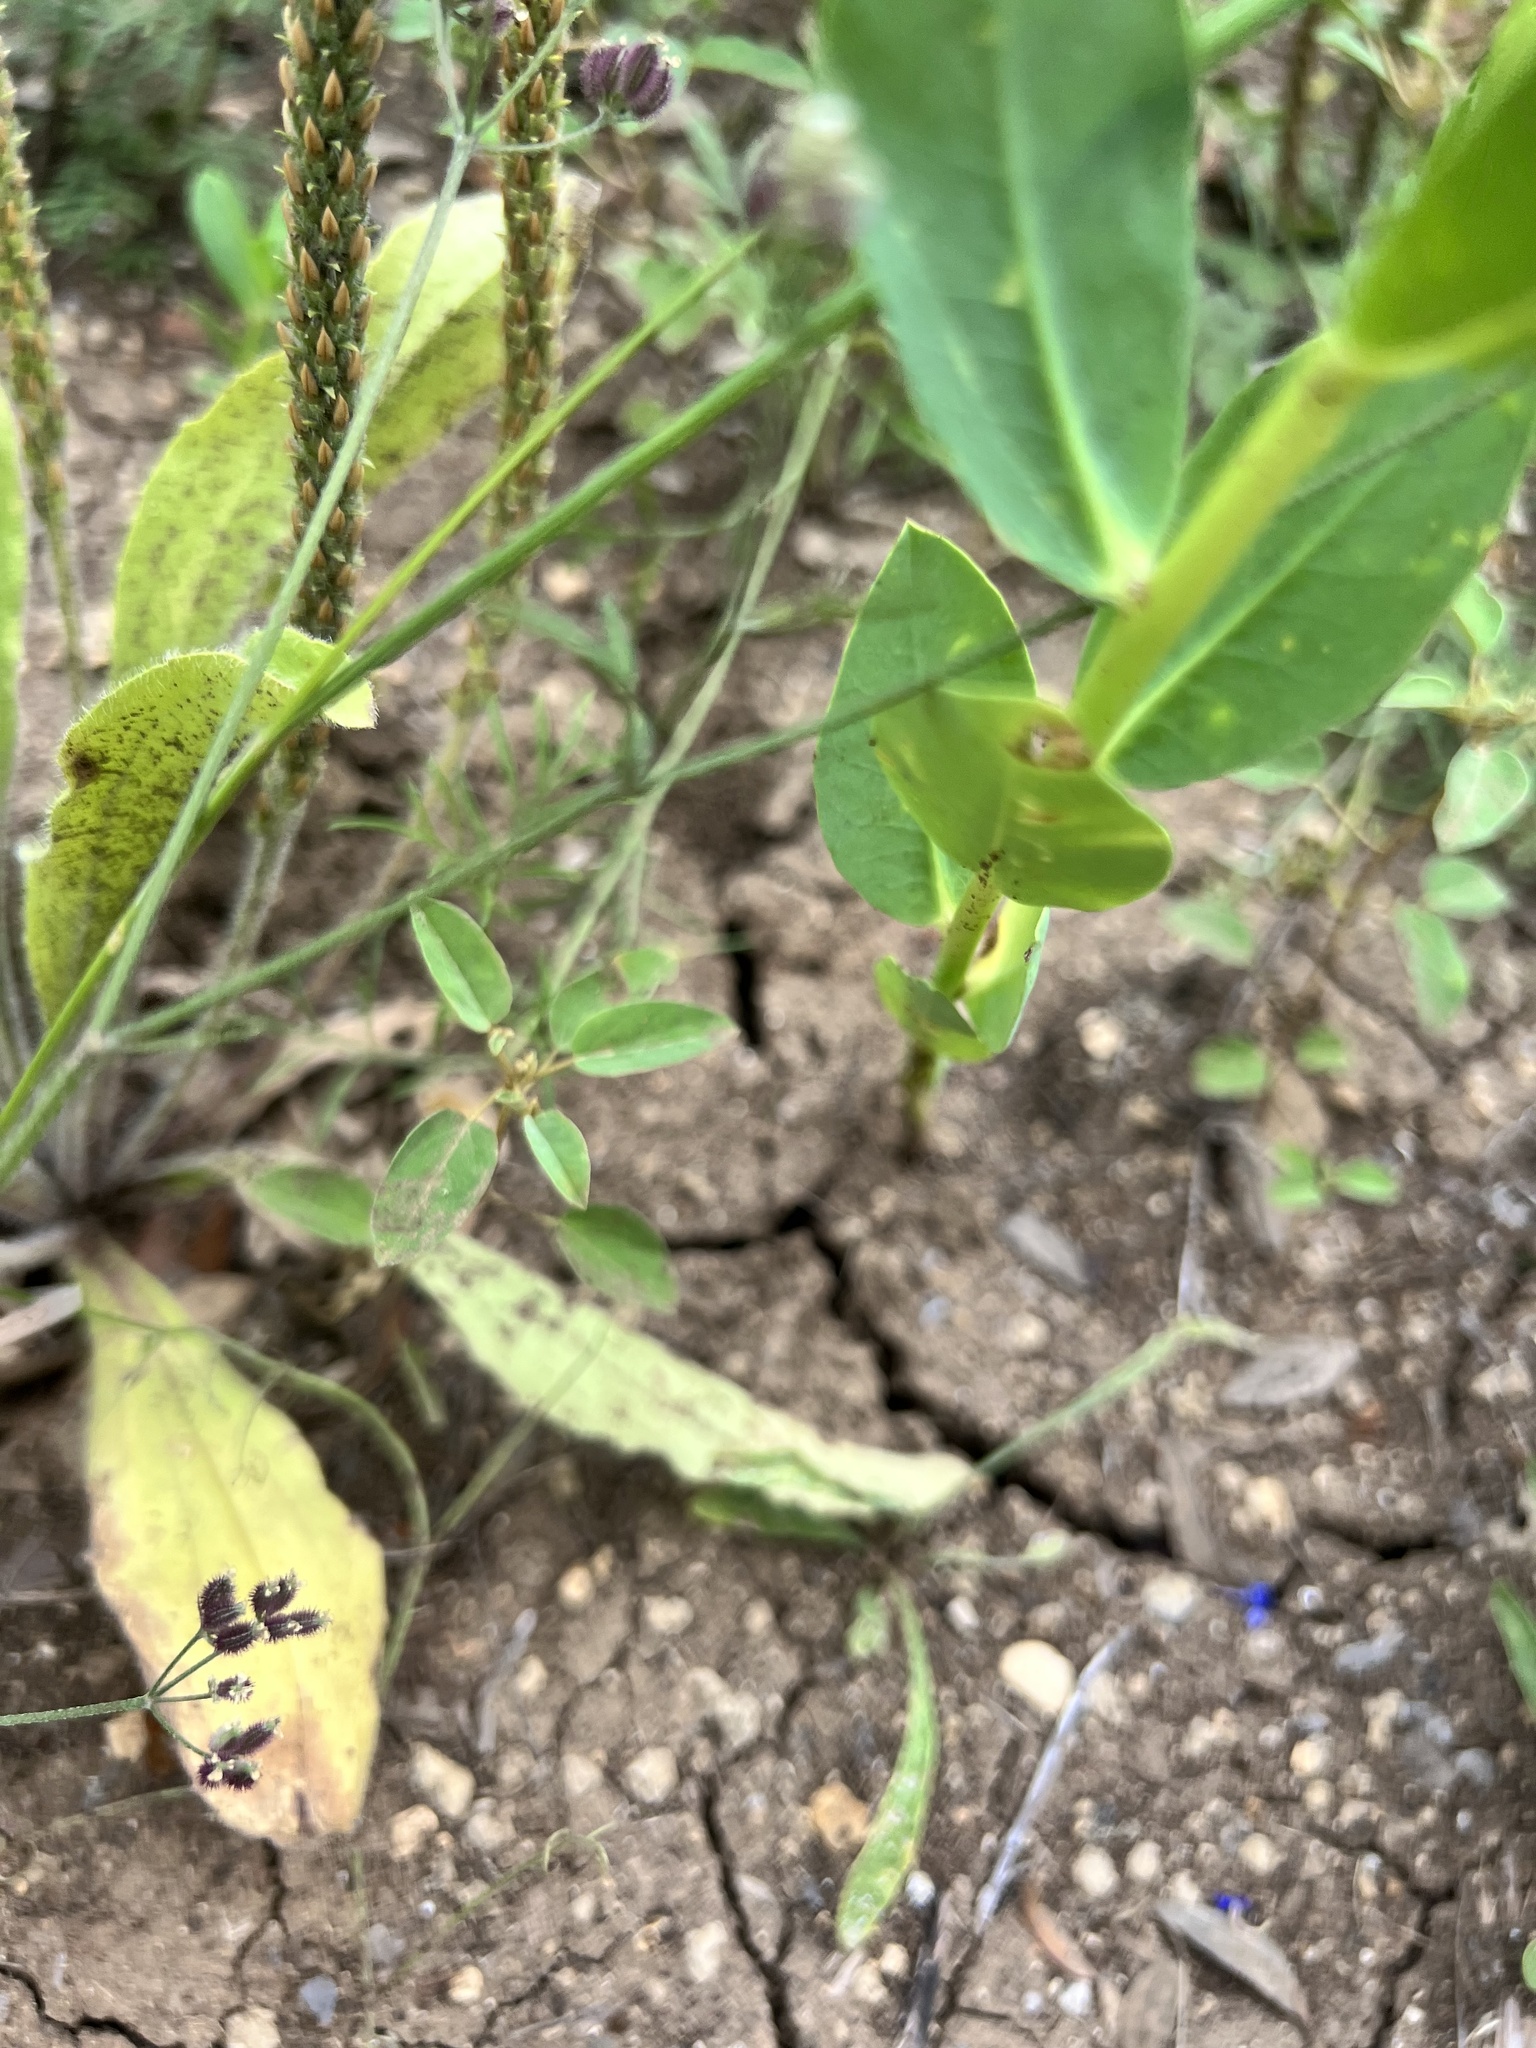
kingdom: Plantae
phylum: Tracheophyta
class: Magnoliopsida
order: Lamiales
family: Plantaginaceae
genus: Plantago
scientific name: Plantago rhodosperma
